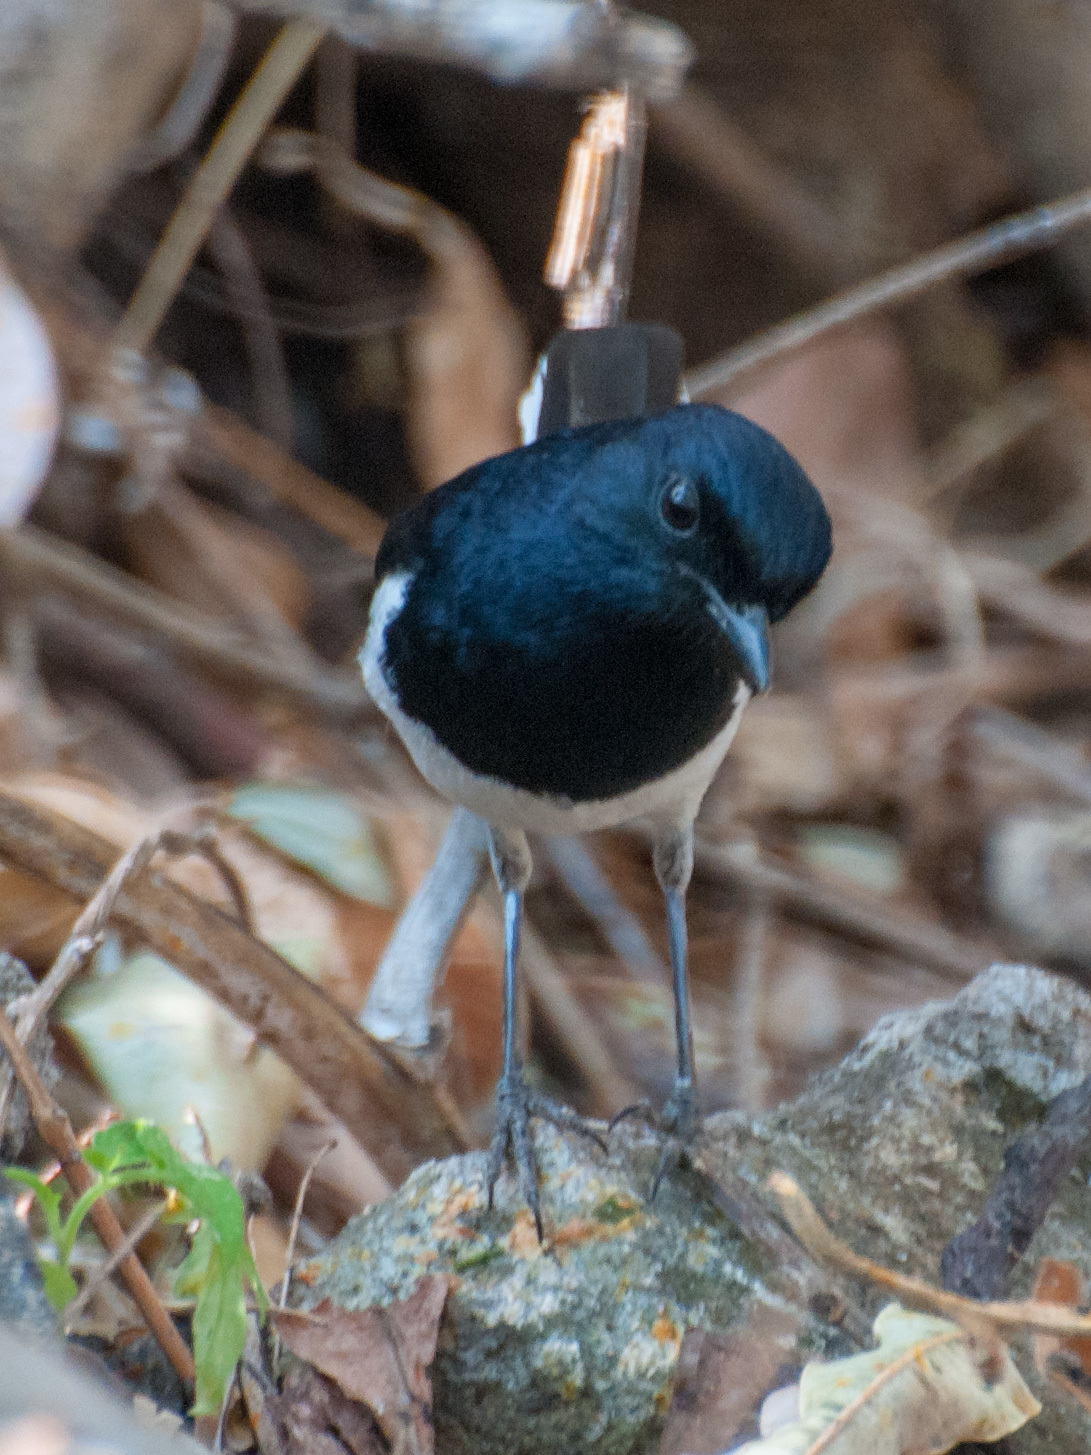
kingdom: Animalia
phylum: Chordata
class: Aves
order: Passeriformes
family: Muscicapidae
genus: Copsychus
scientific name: Copsychus albospecularis
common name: Madagascar magpie-robin
